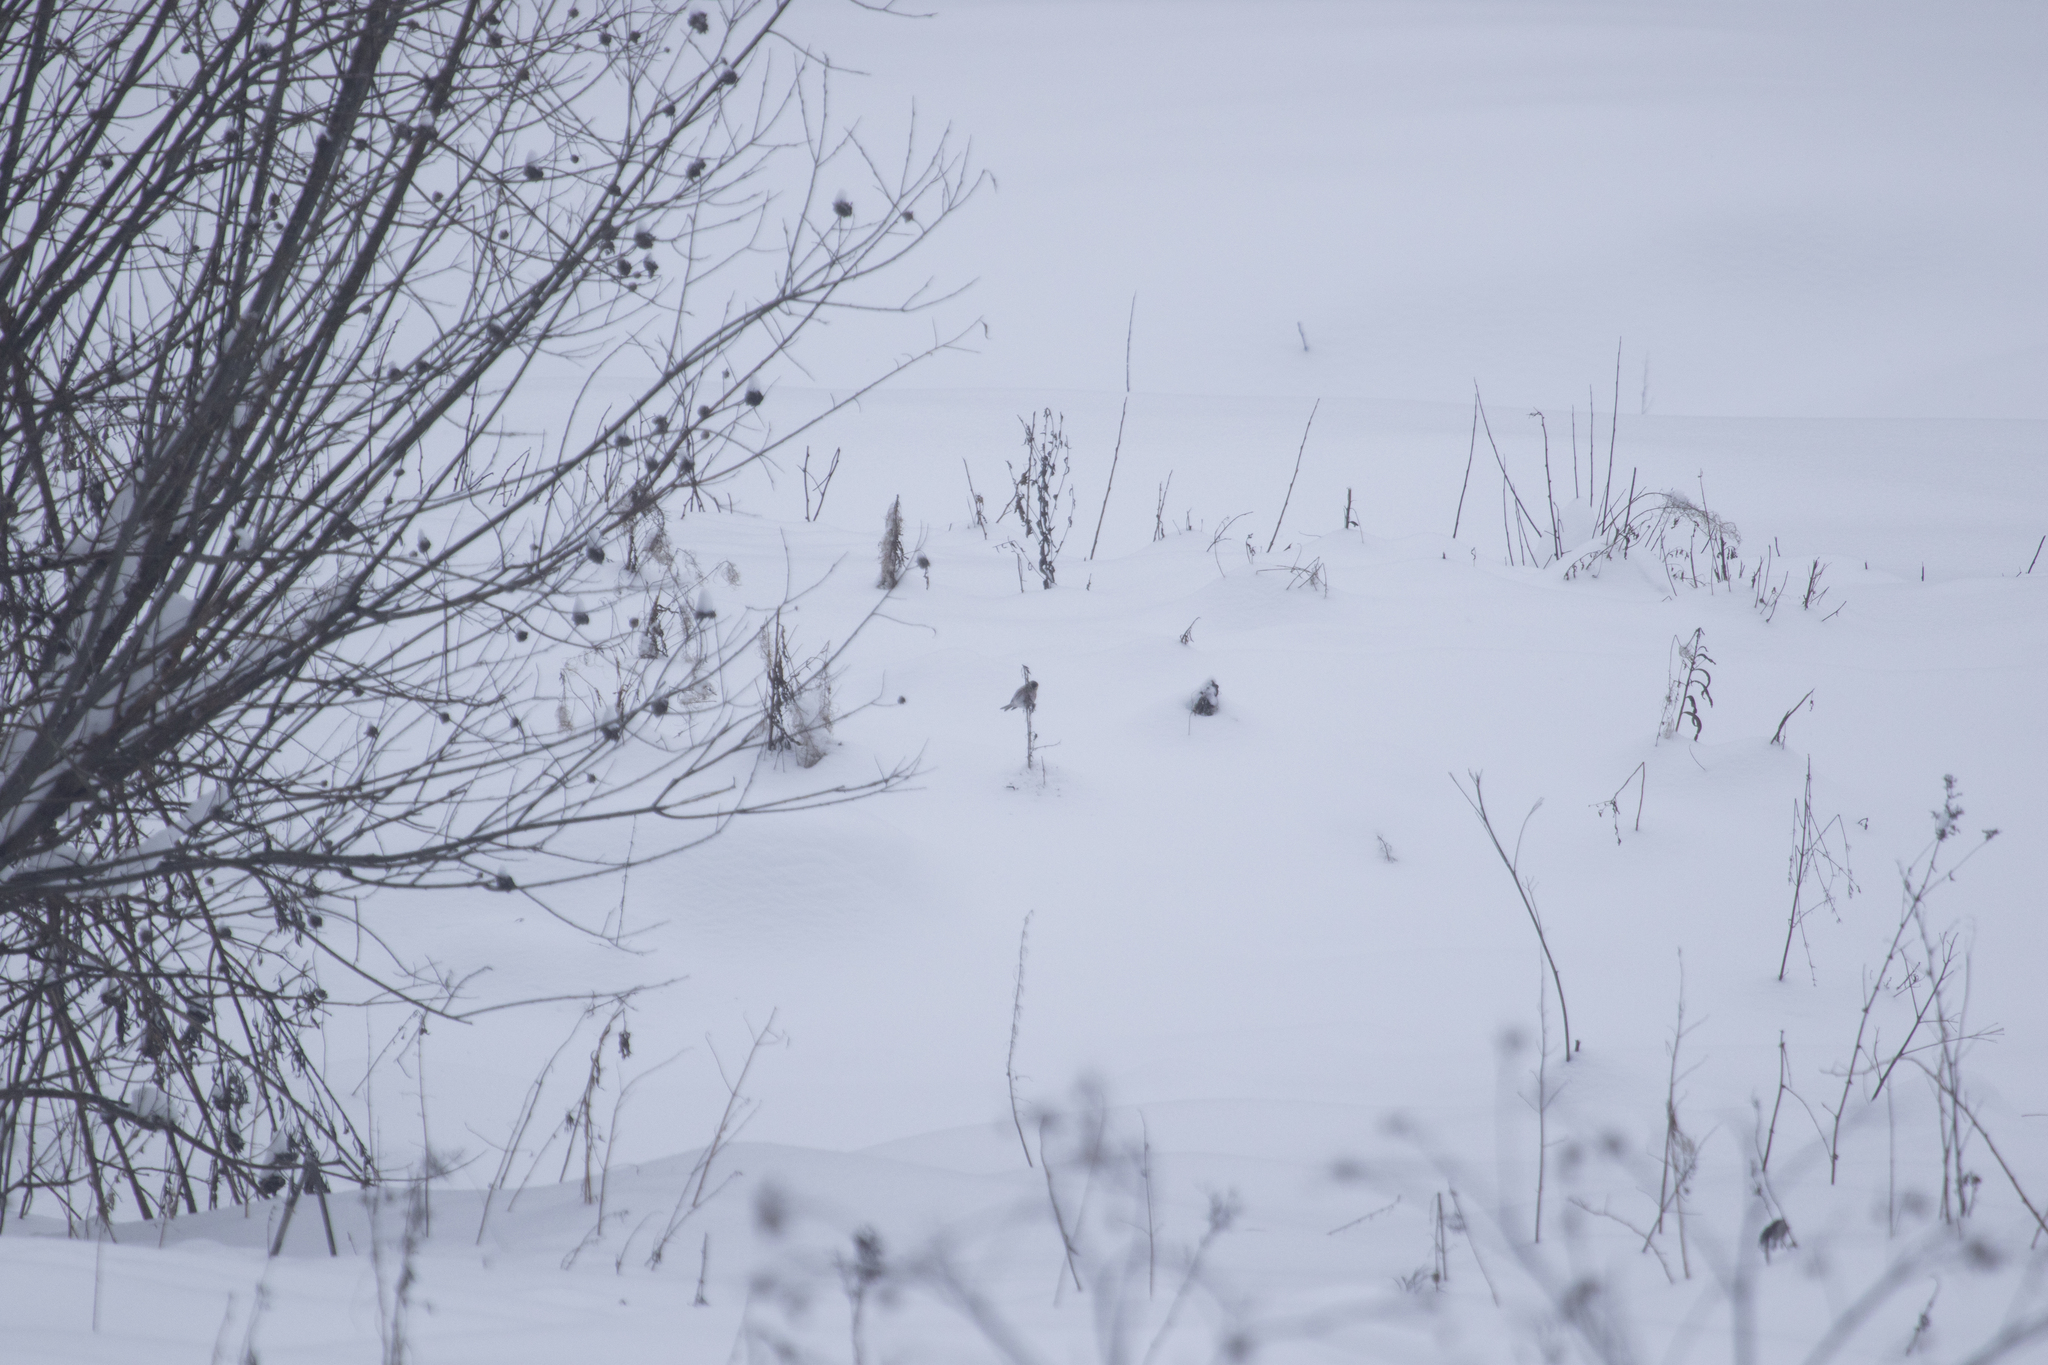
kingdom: Animalia
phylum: Chordata
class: Aves
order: Passeriformes
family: Fringillidae
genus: Acanthis
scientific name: Acanthis flammea
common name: Common redpoll
